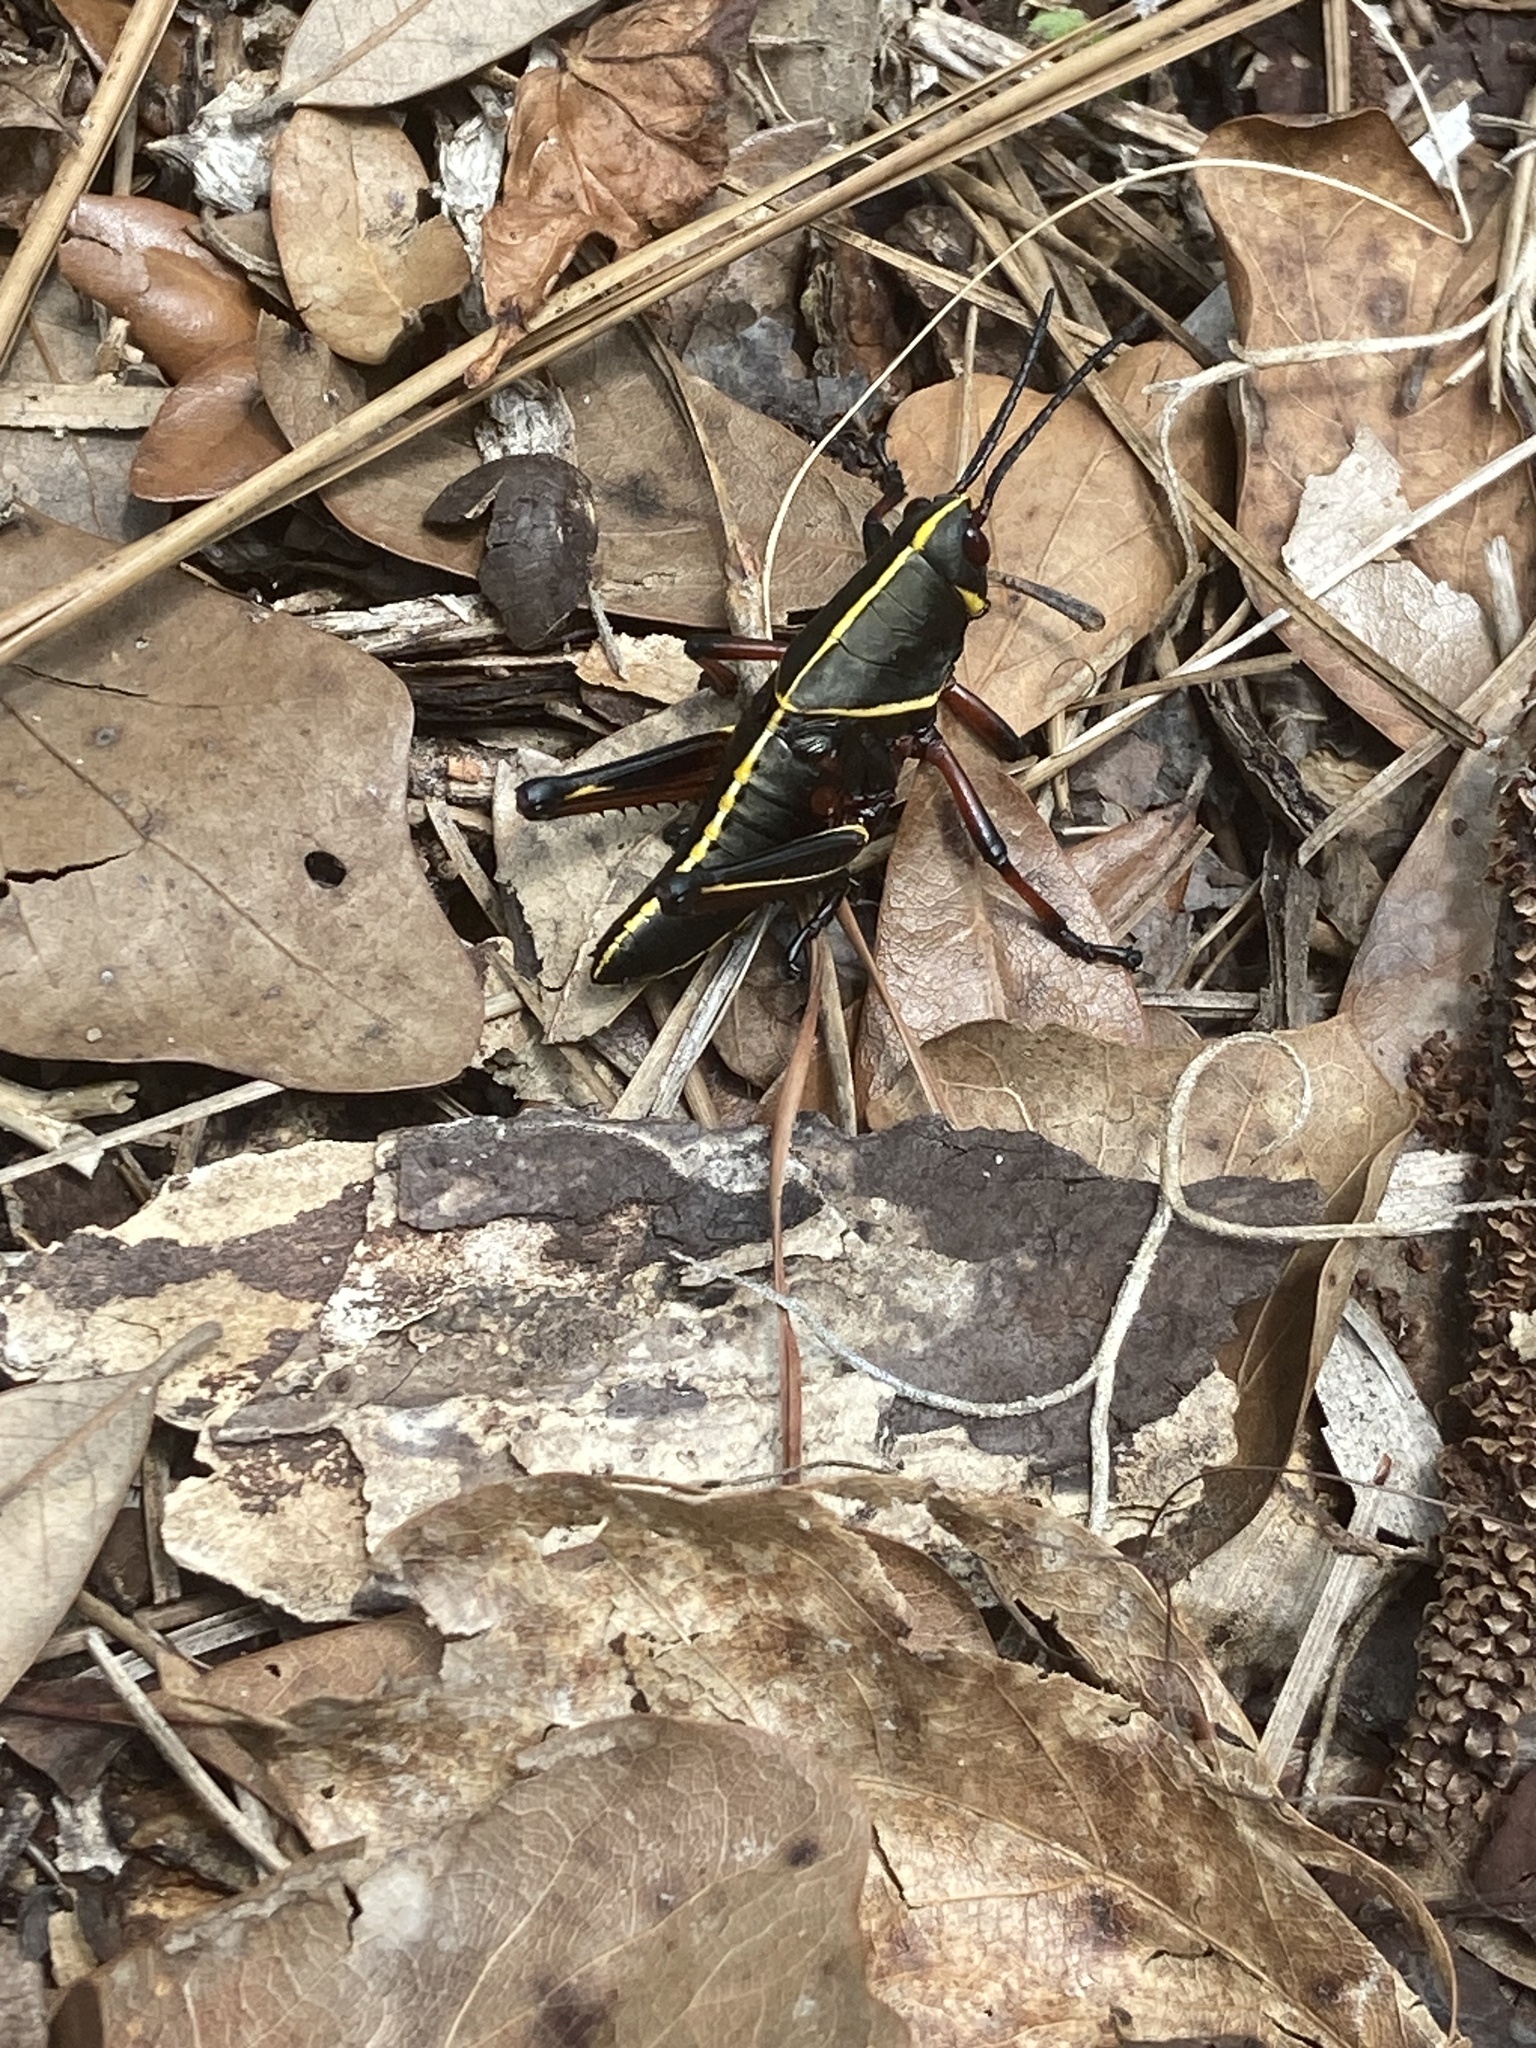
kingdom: Animalia
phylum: Arthropoda
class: Insecta
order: Orthoptera
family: Romaleidae
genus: Romalea
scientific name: Romalea microptera
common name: Eastern lubber grasshopper
